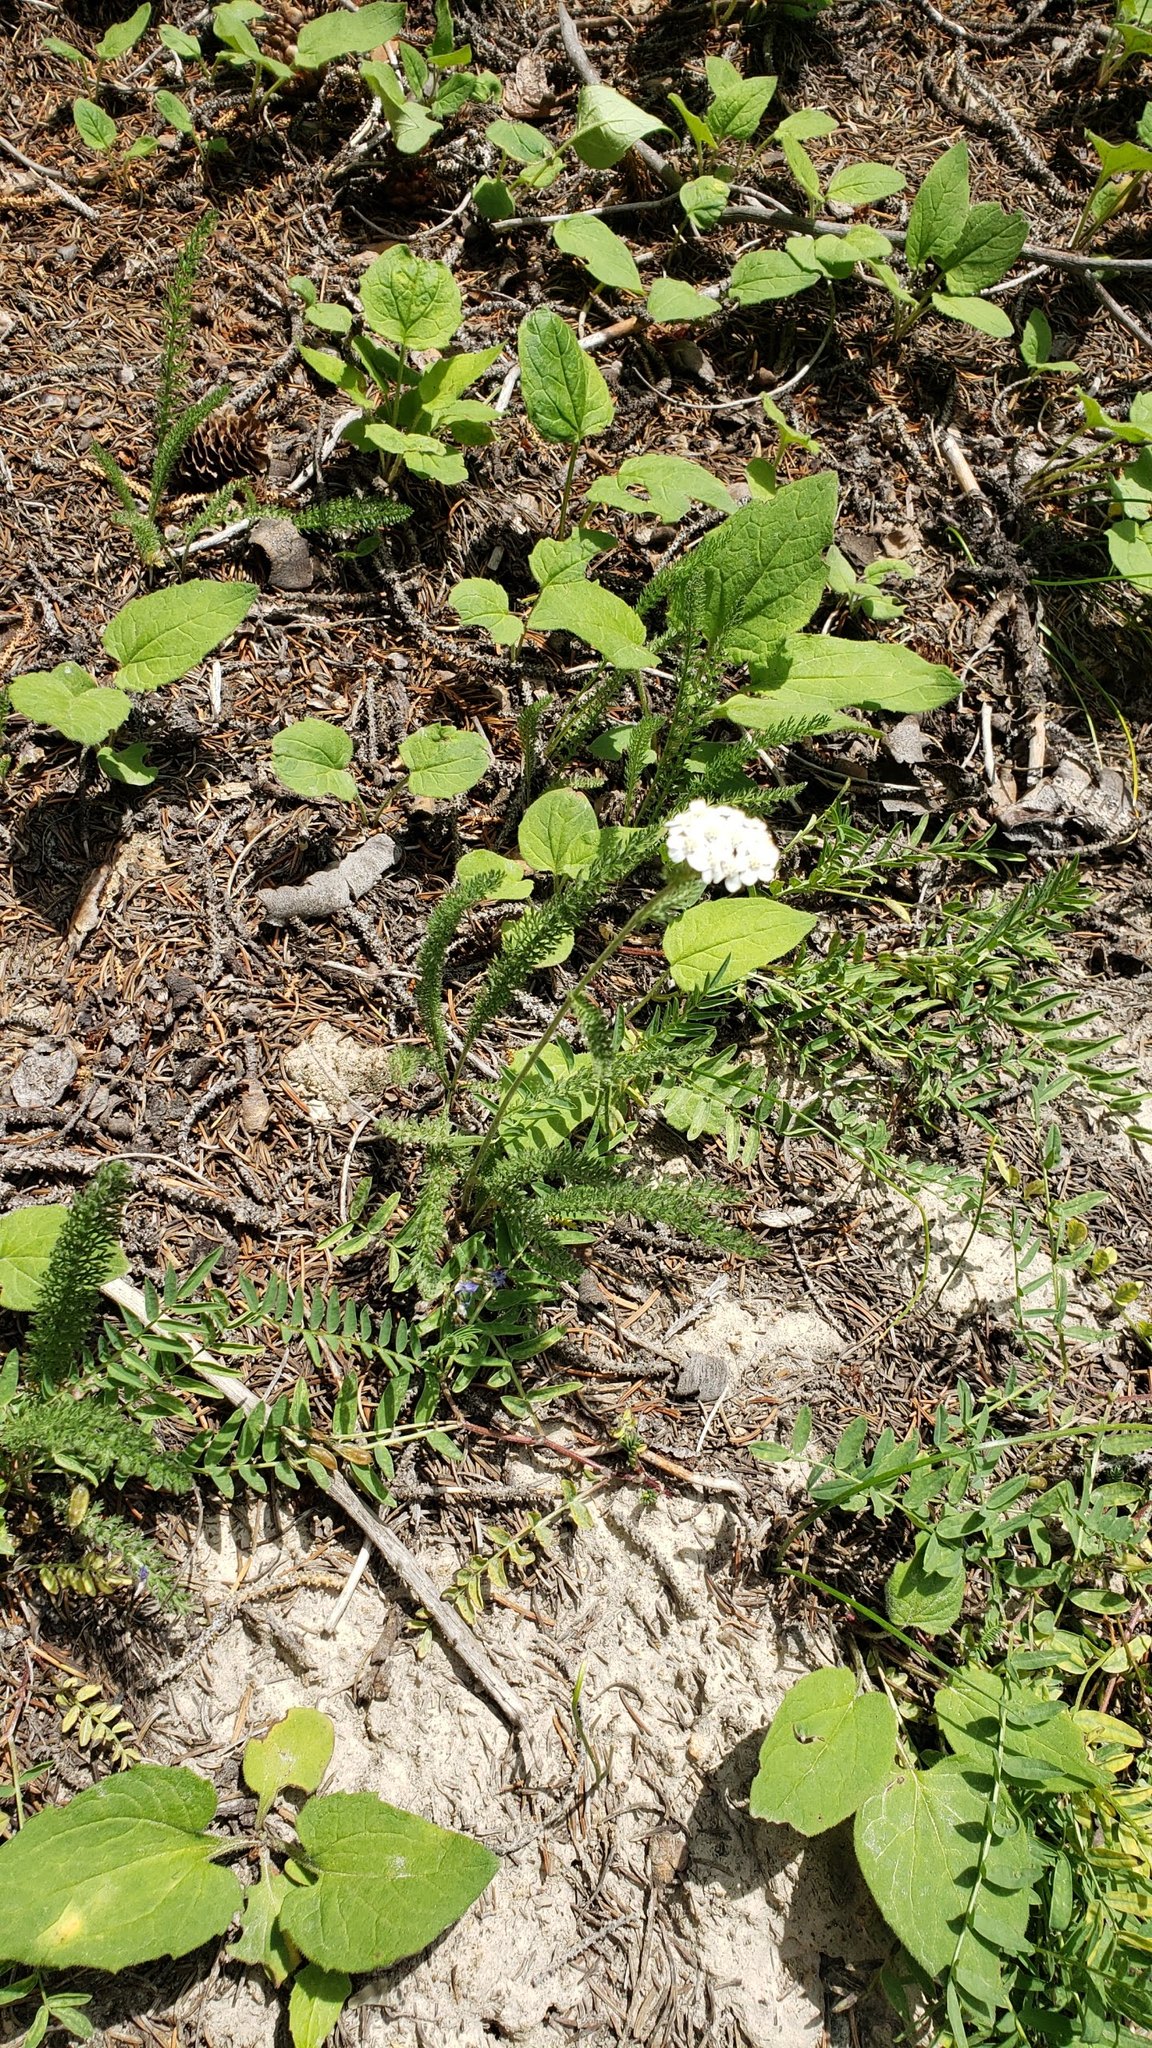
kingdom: Plantae
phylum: Tracheophyta
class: Magnoliopsida
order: Asterales
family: Asteraceae
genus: Achillea
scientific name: Achillea millefolium
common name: Yarrow
